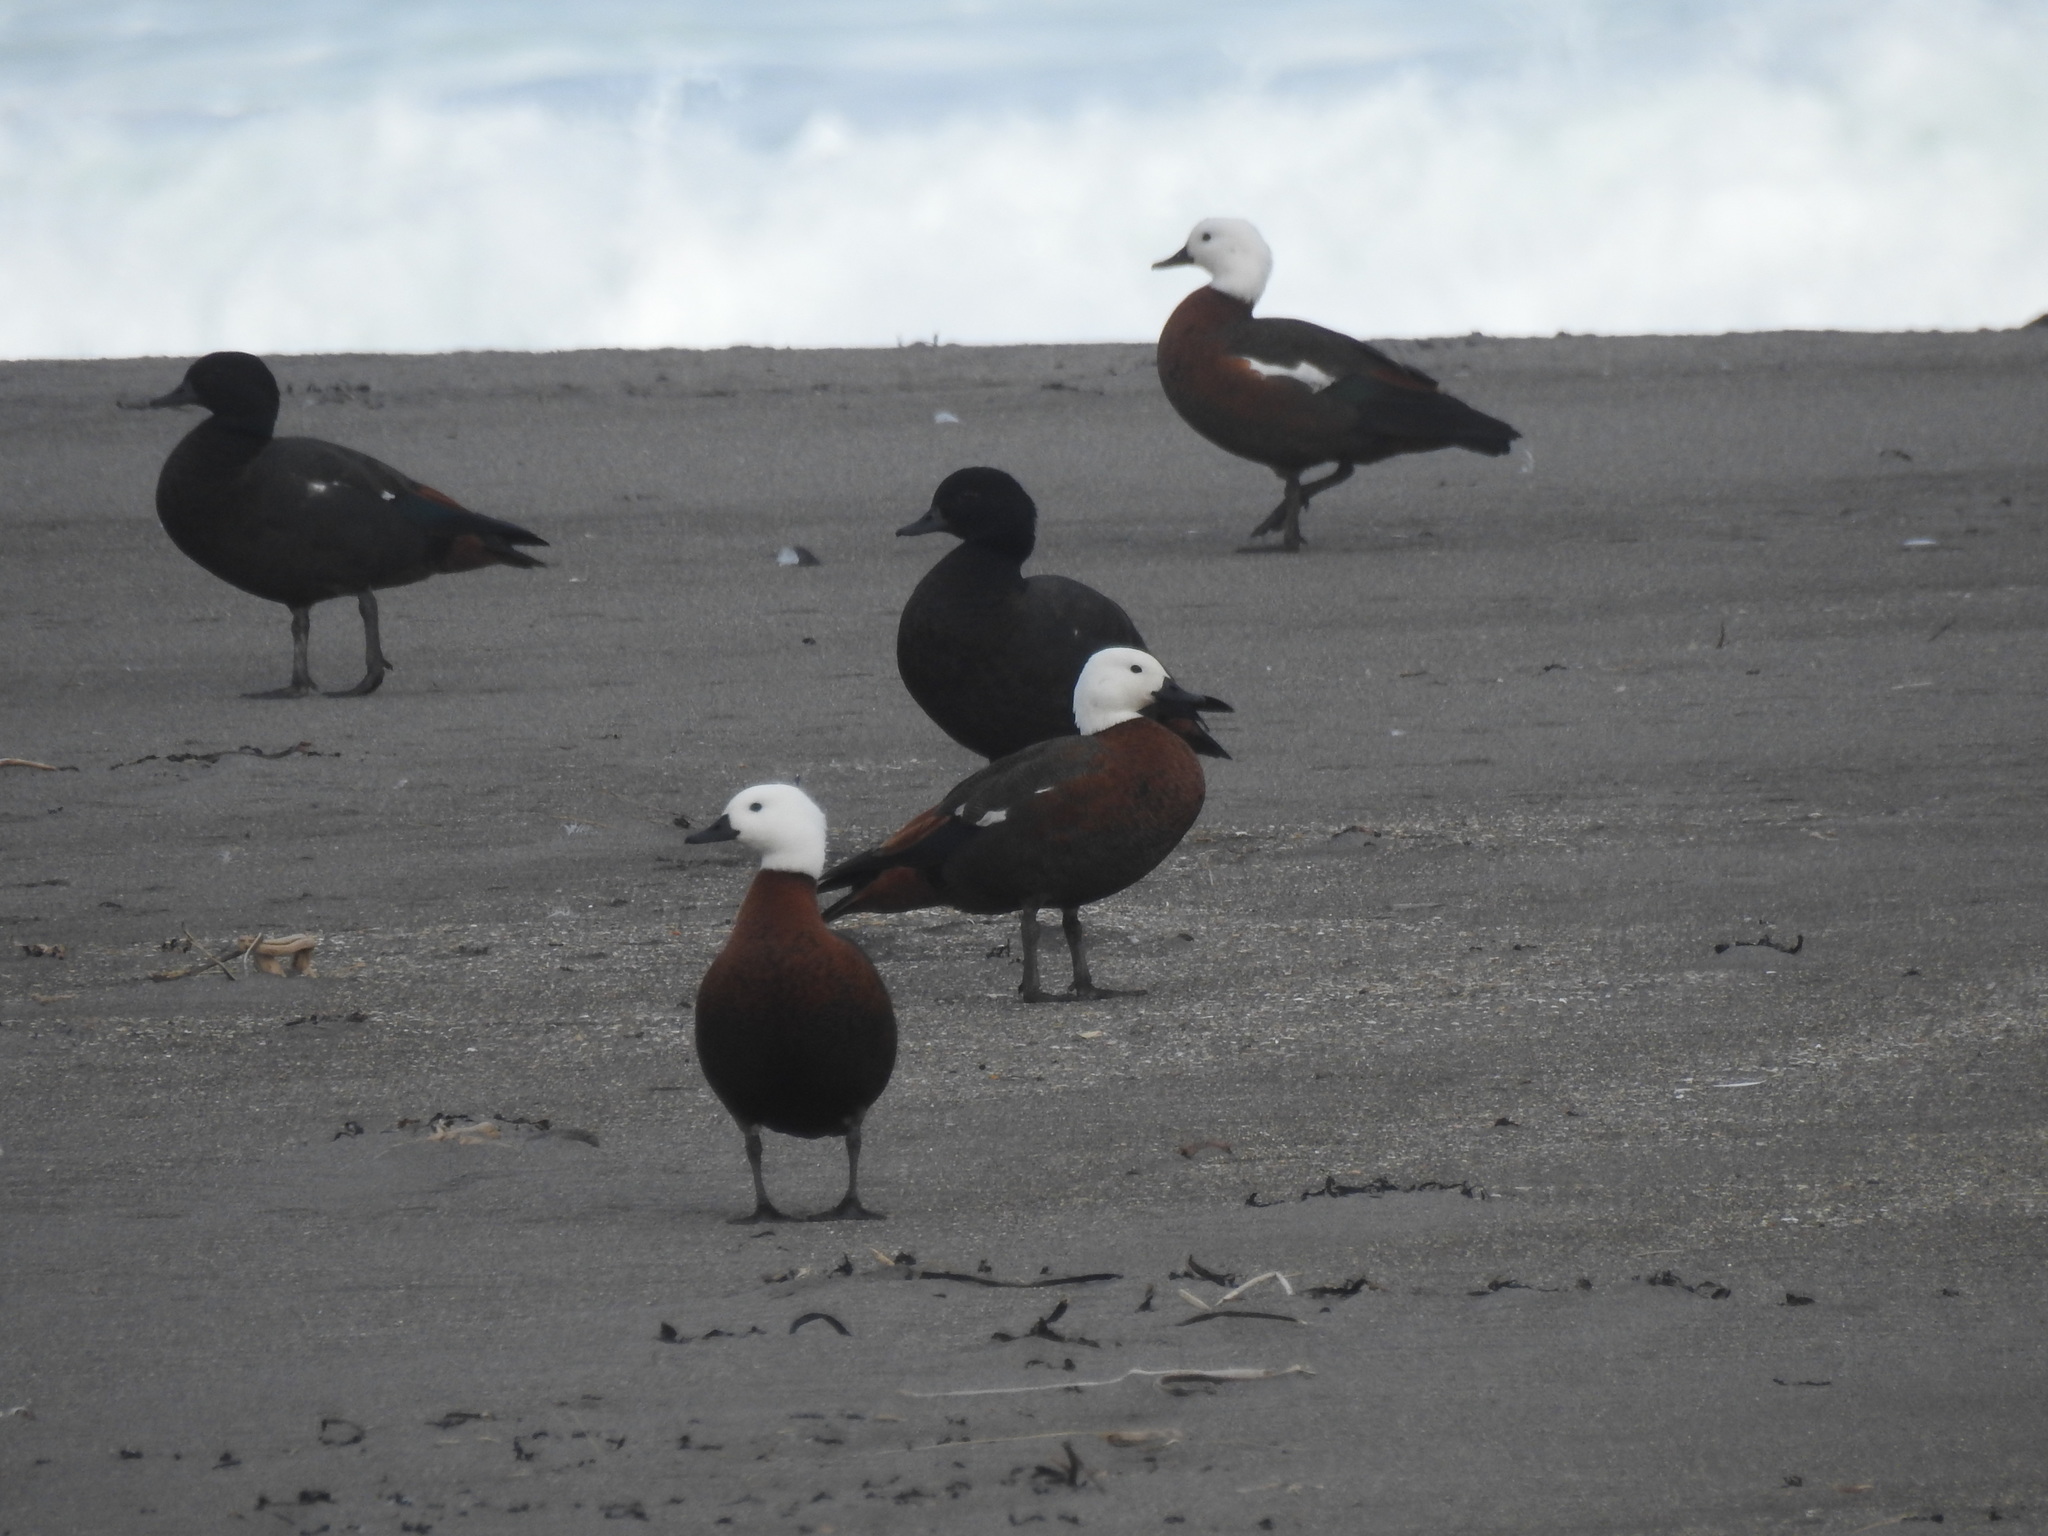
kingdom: Animalia
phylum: Chordata
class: Aves
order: Anseriformes
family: Anatidae
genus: Tadorna
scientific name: Tadorna variegata
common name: Paradise shelduck
